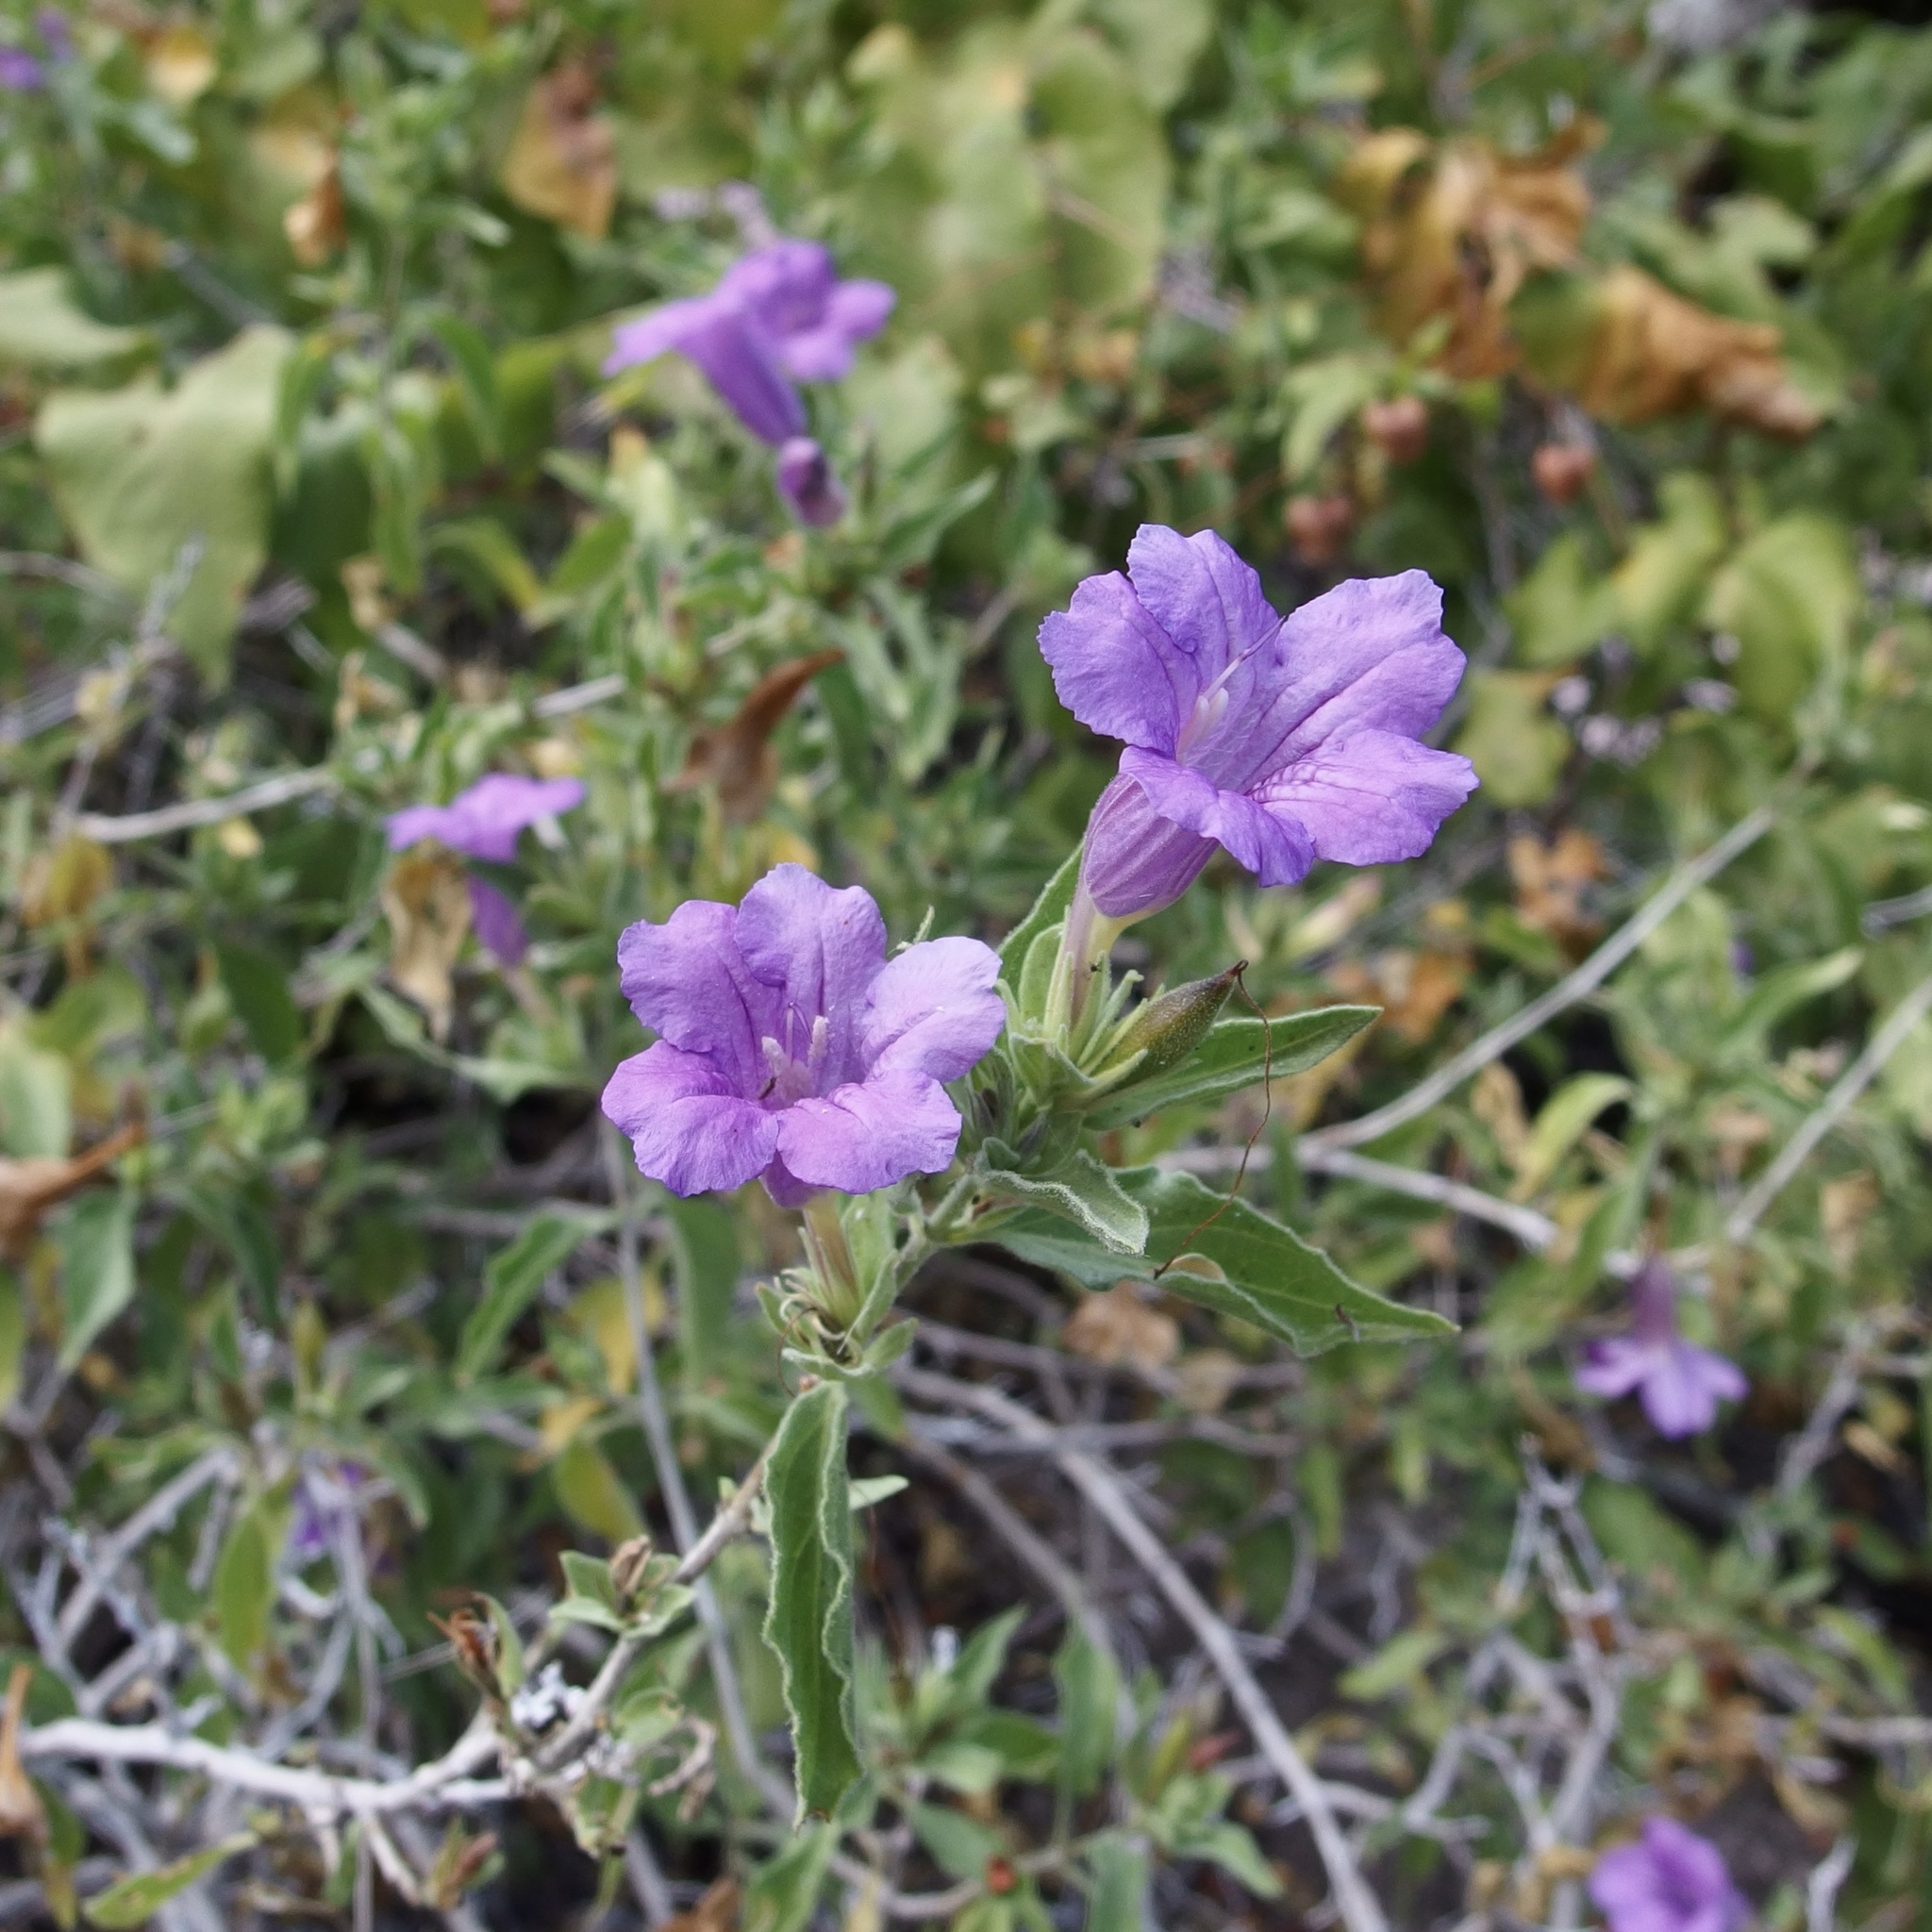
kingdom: Plantae
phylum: Tracheophyta
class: Magnoliopsida
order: Lamiales
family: Acanthaceae
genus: Ruellia
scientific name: Ruellia californica
